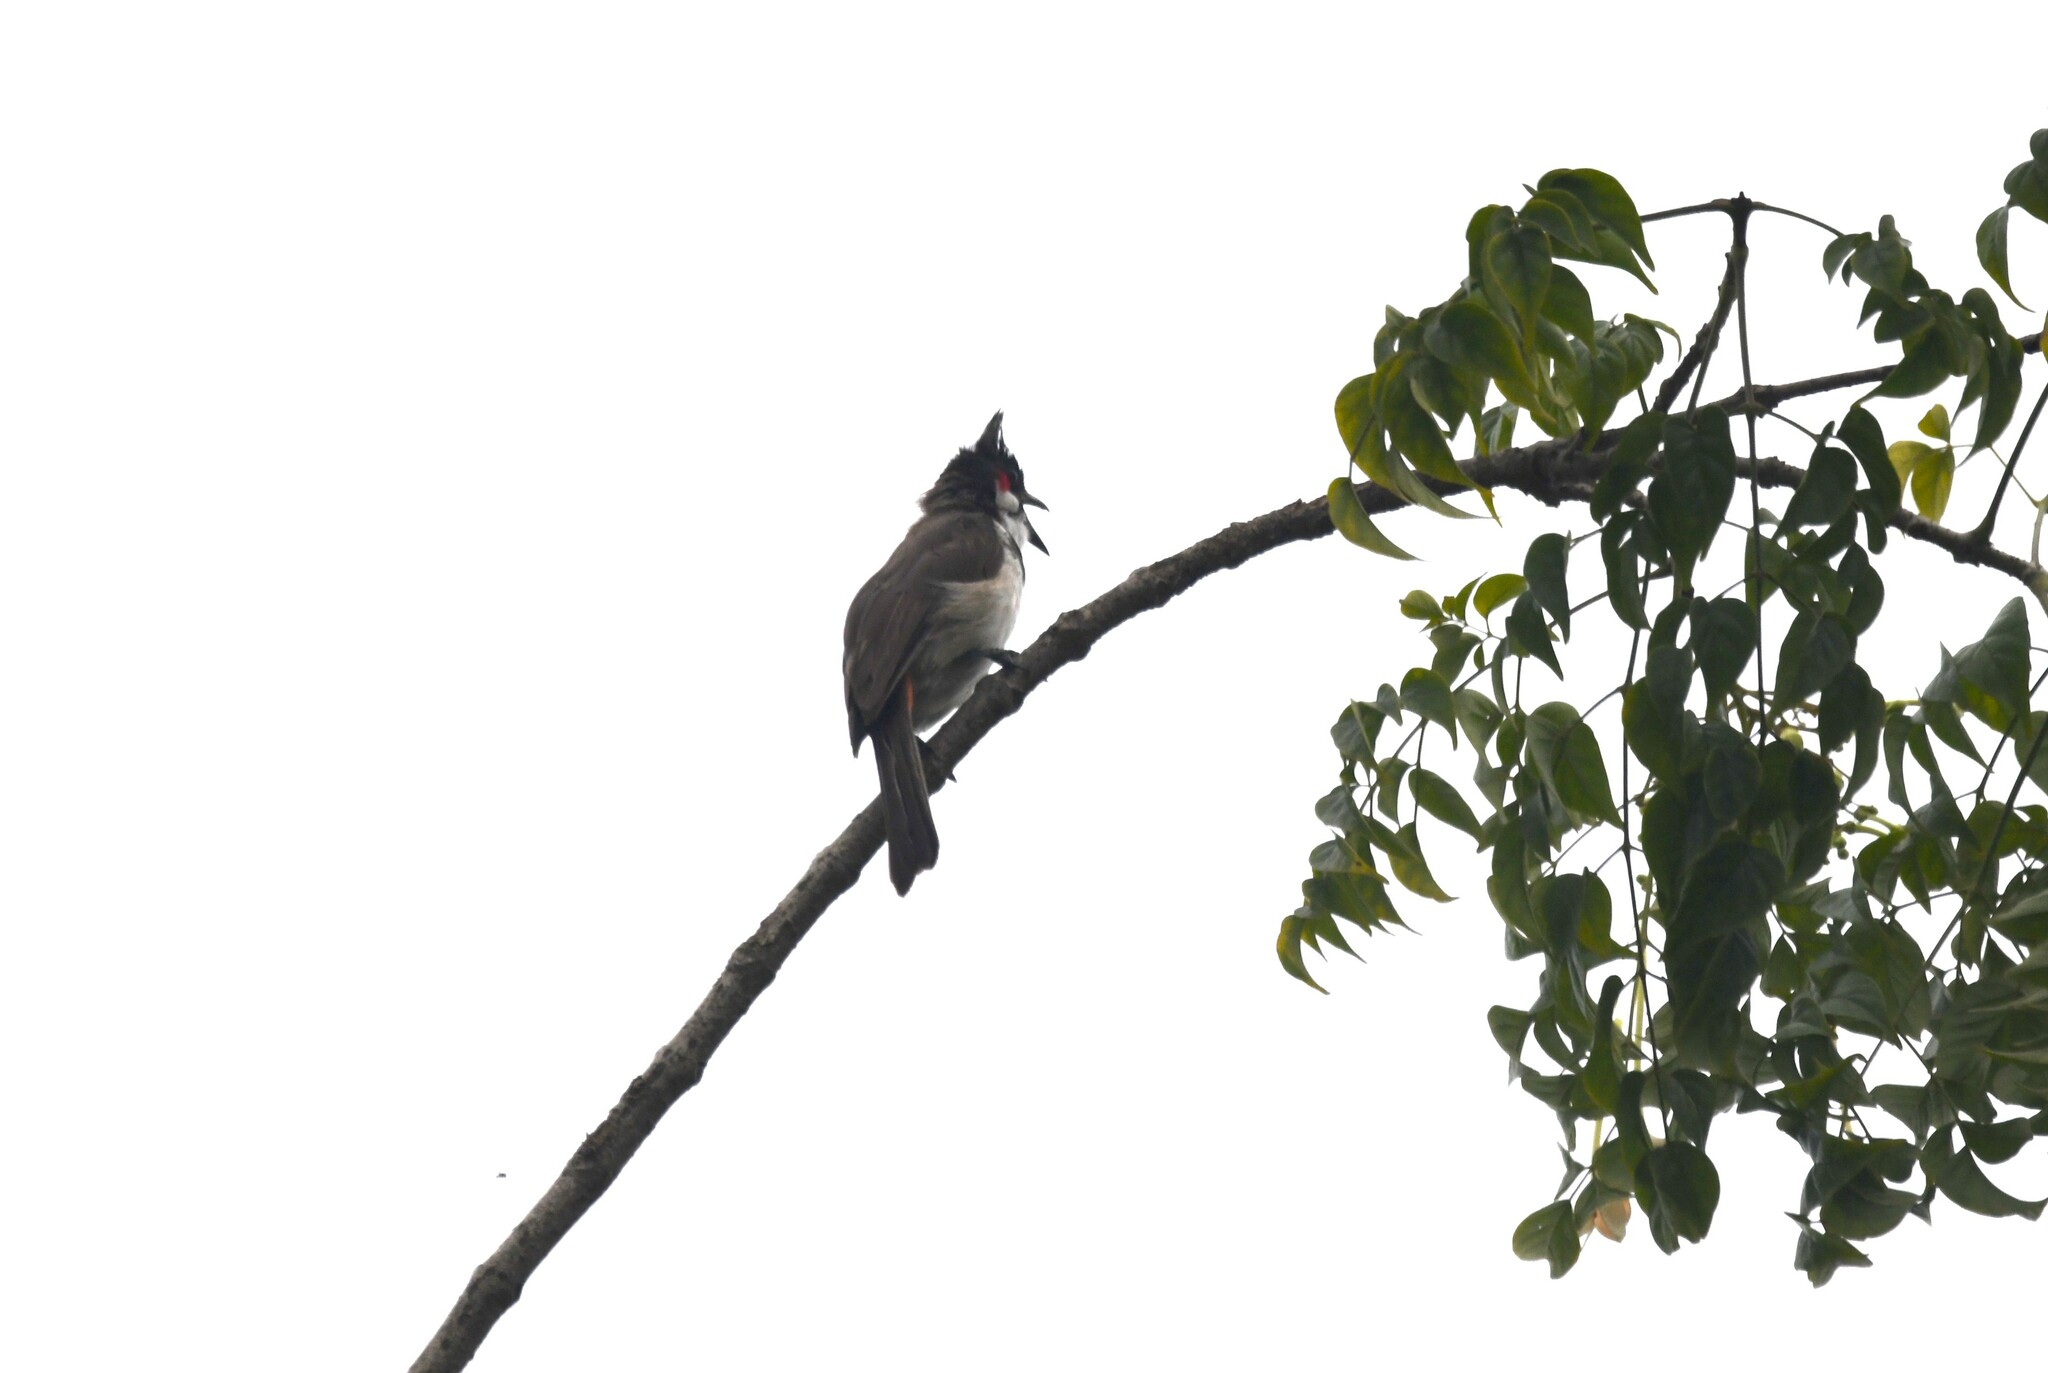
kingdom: Animalia
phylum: Chordata
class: Aves
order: Passeriformes
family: Pycnonotidae
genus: Pycnonotus
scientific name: Pycnonotus jocosus
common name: Red-whiskered bulbul
